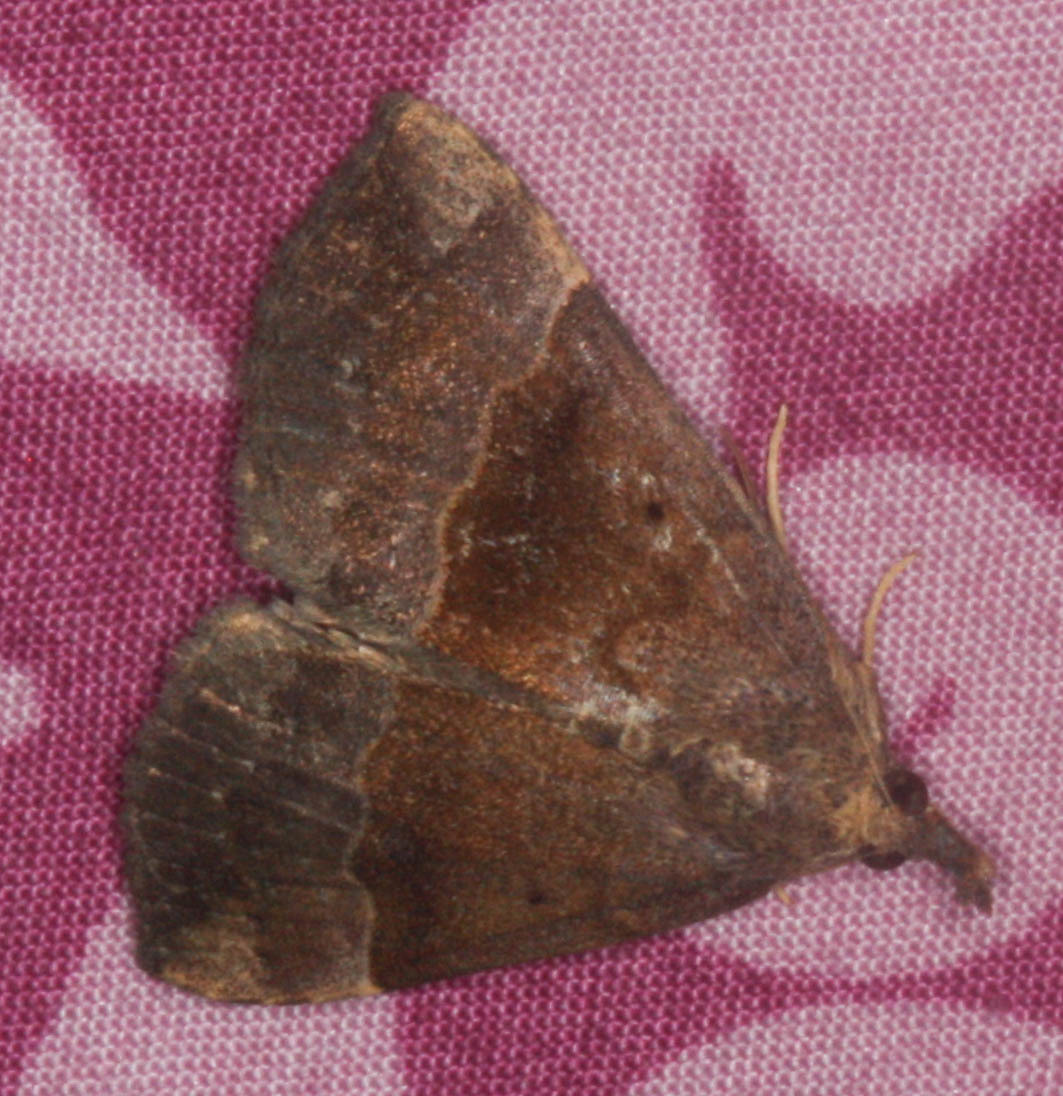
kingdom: Animalia
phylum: Arthropoda
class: Insecta
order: Lepidoptera
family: Erebidae
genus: Hypena
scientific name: Hypena madefactalis
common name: Gray-edged snout
